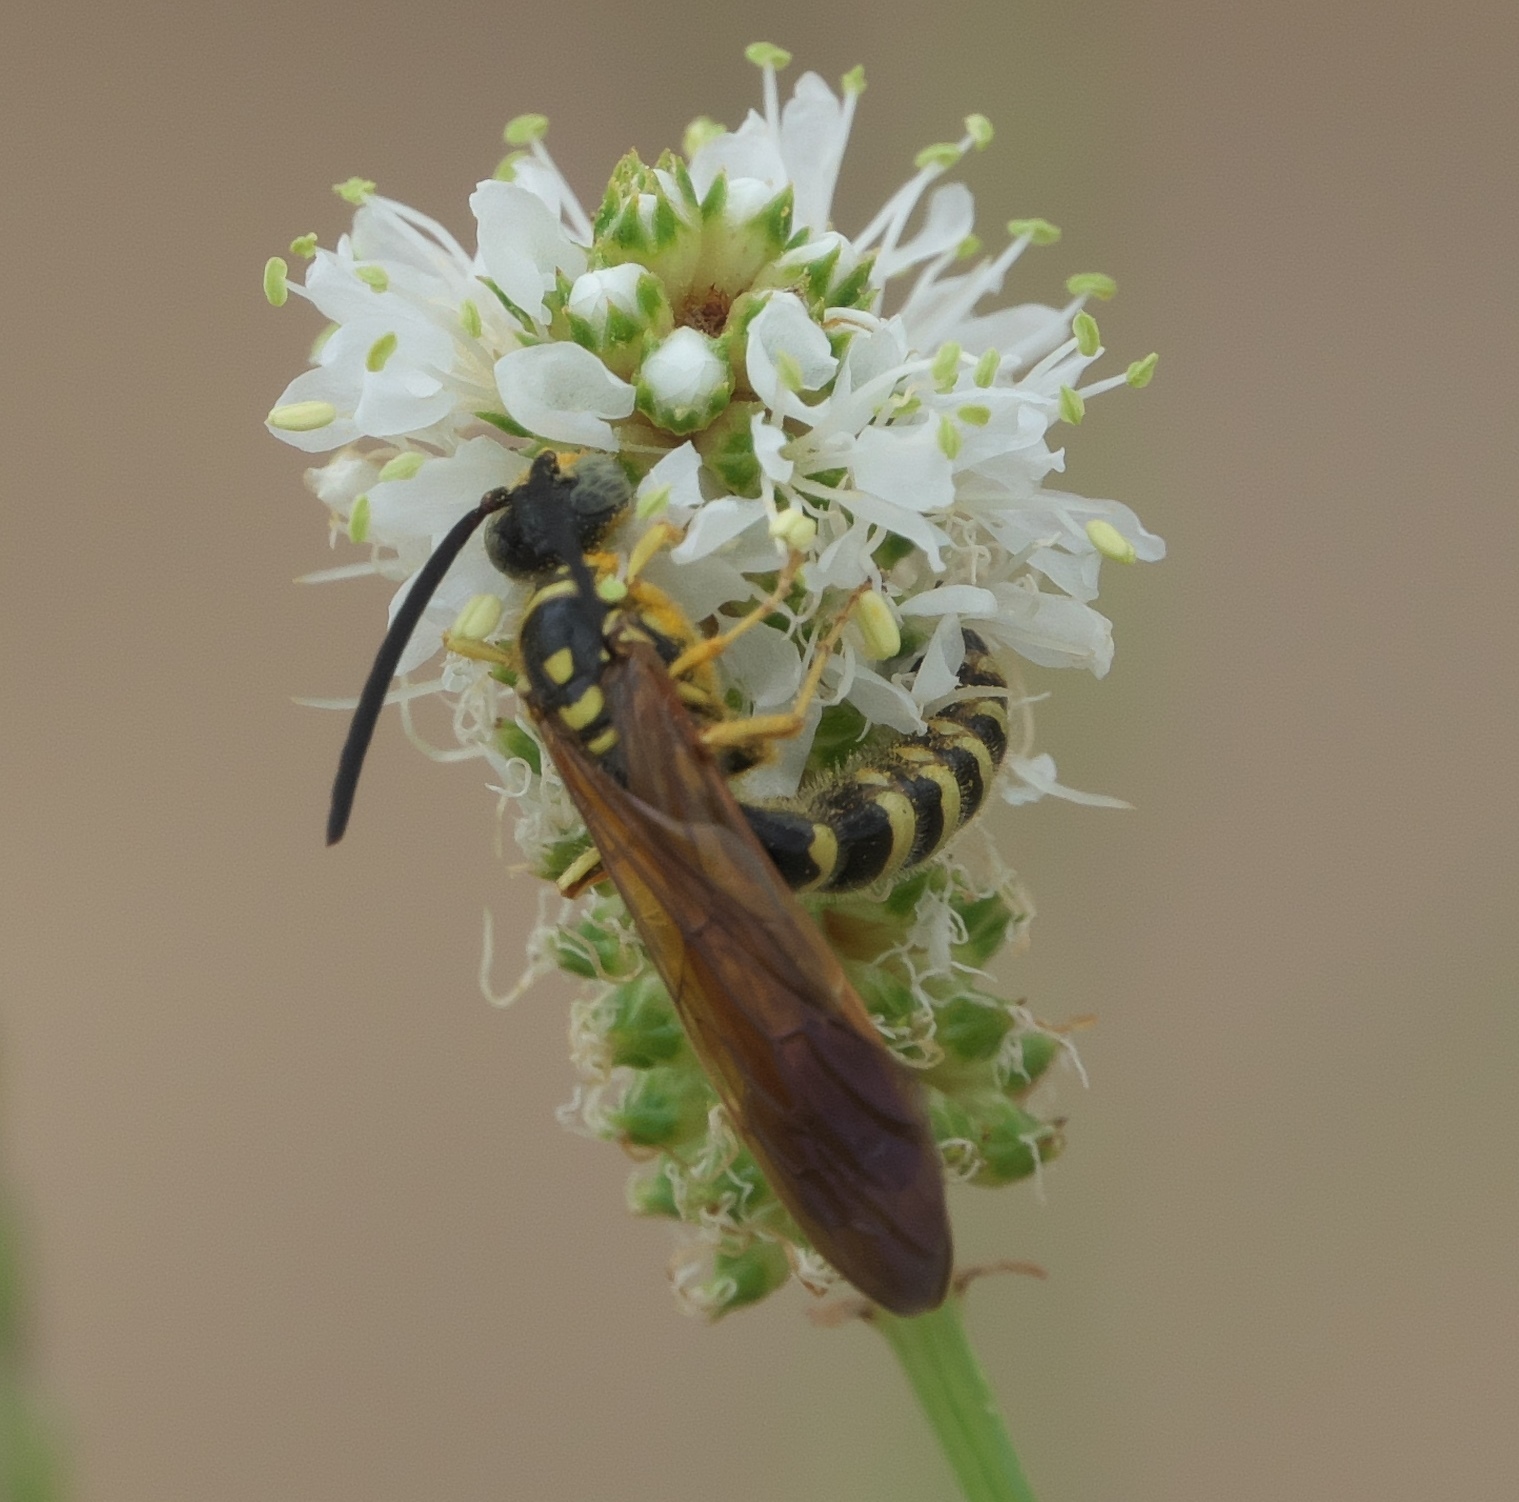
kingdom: Animalia
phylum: Arthropoda
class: Insecta
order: Hymenoptera
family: Tiphiidae
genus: Myzinum
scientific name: Myzinum quinquecinctum
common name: Five-banded thynnid wasp
